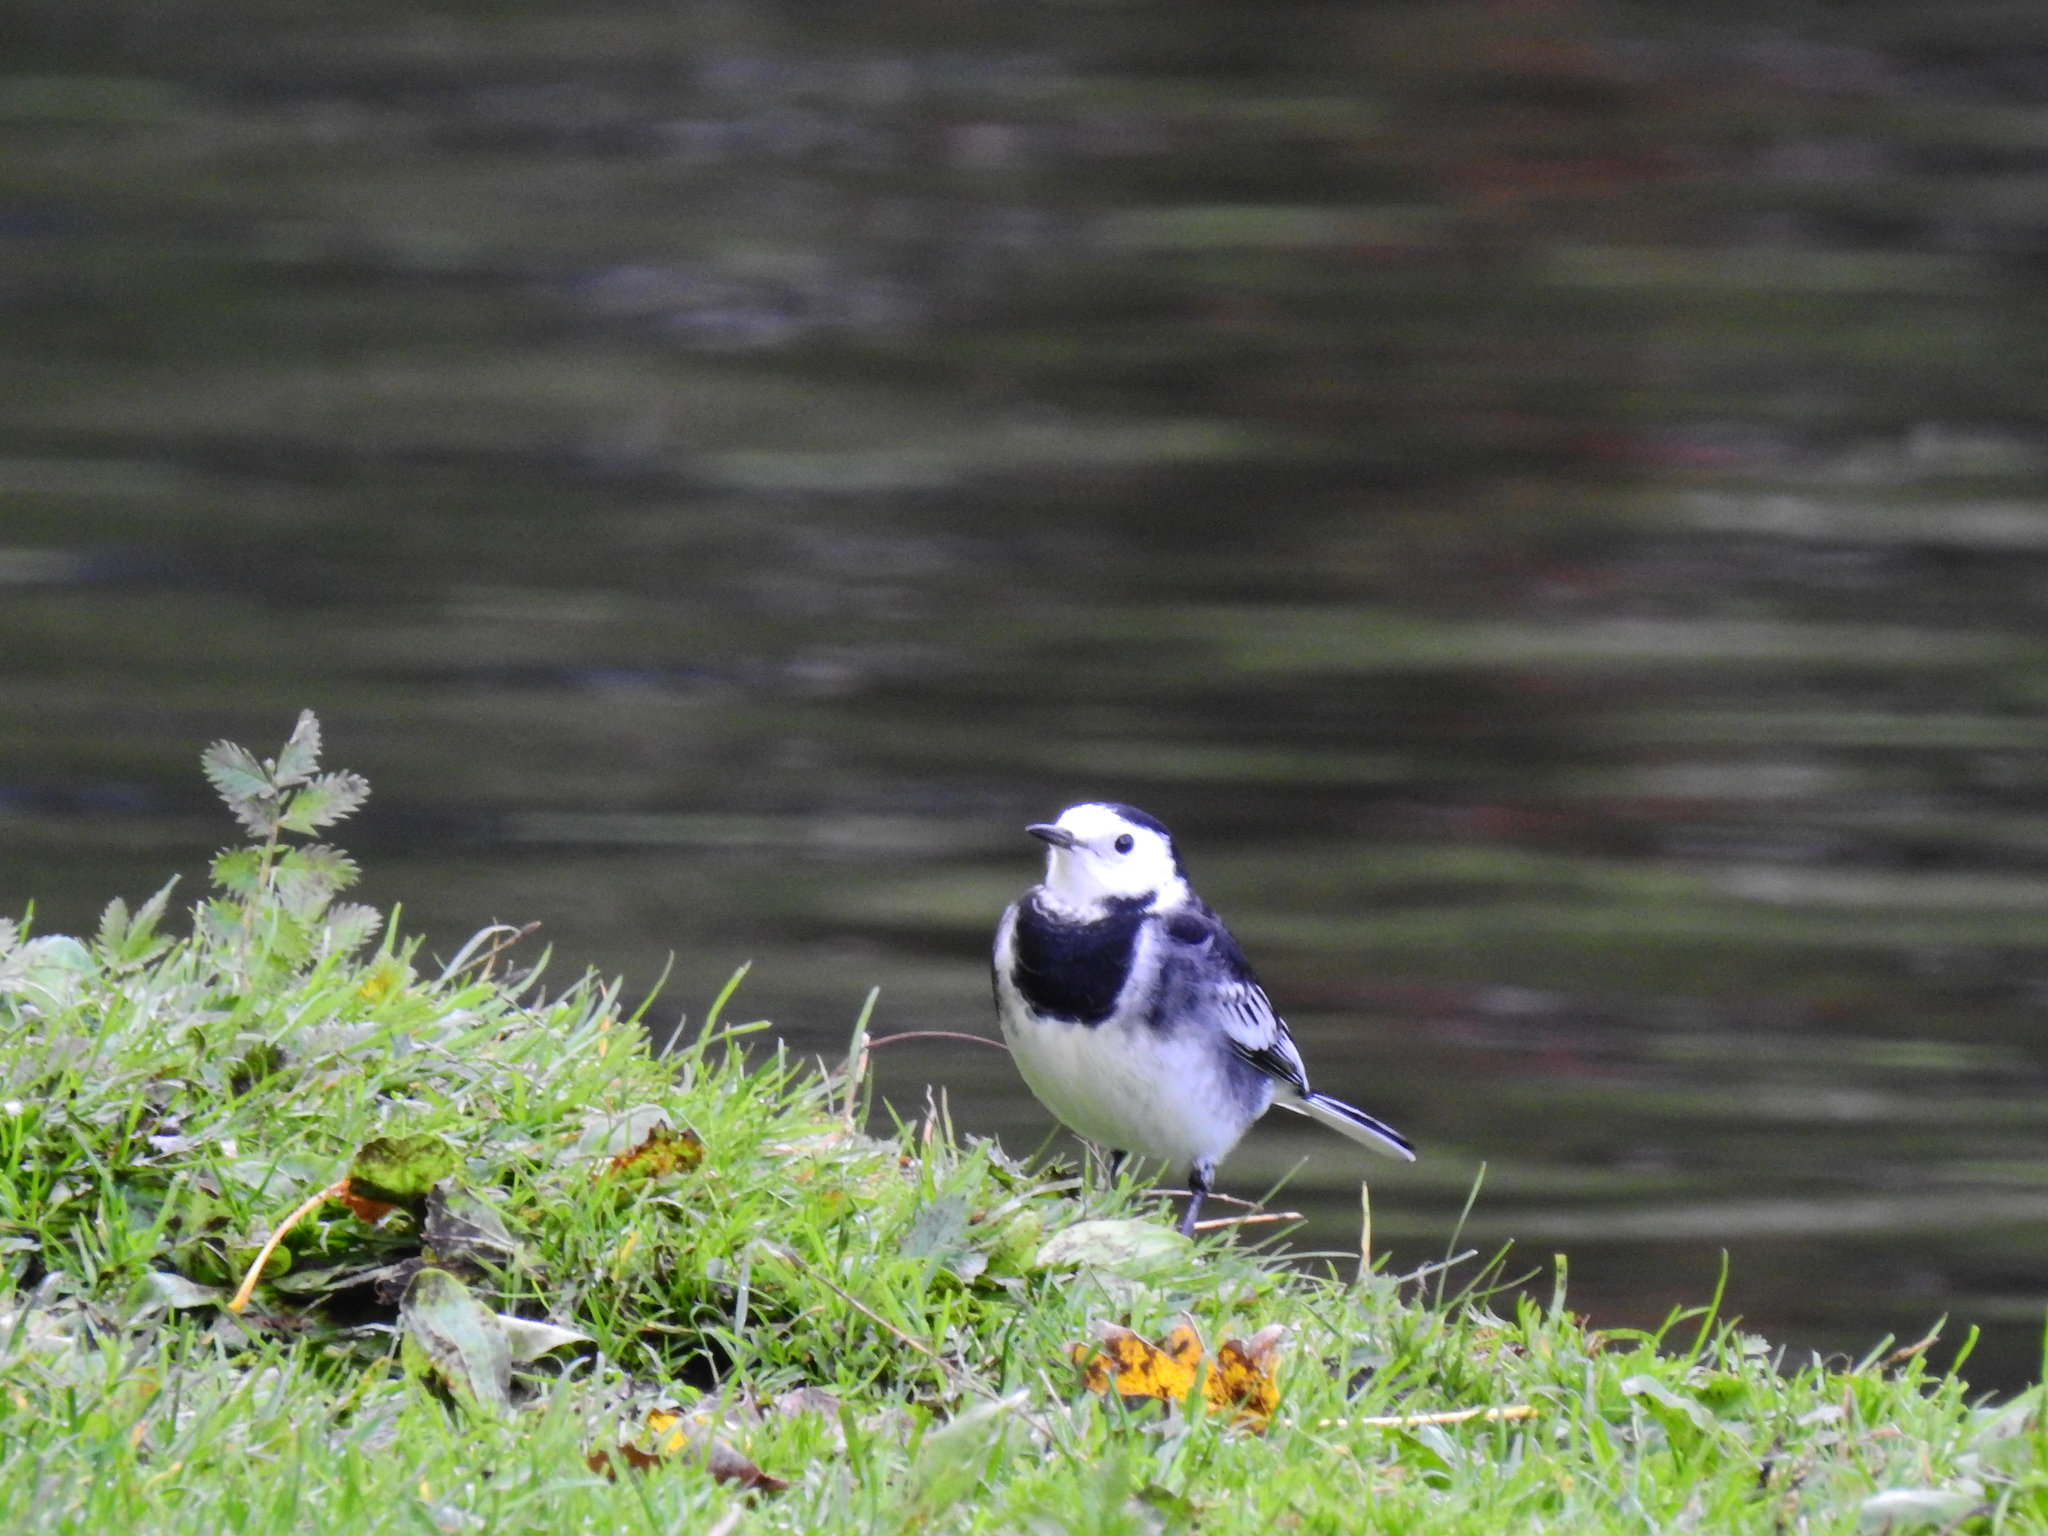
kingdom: Animalia
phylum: Chordata
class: Aves
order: Passeriformes
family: Motacillidae
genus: Motacilla
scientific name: Motacilla alba
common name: White wagtail
